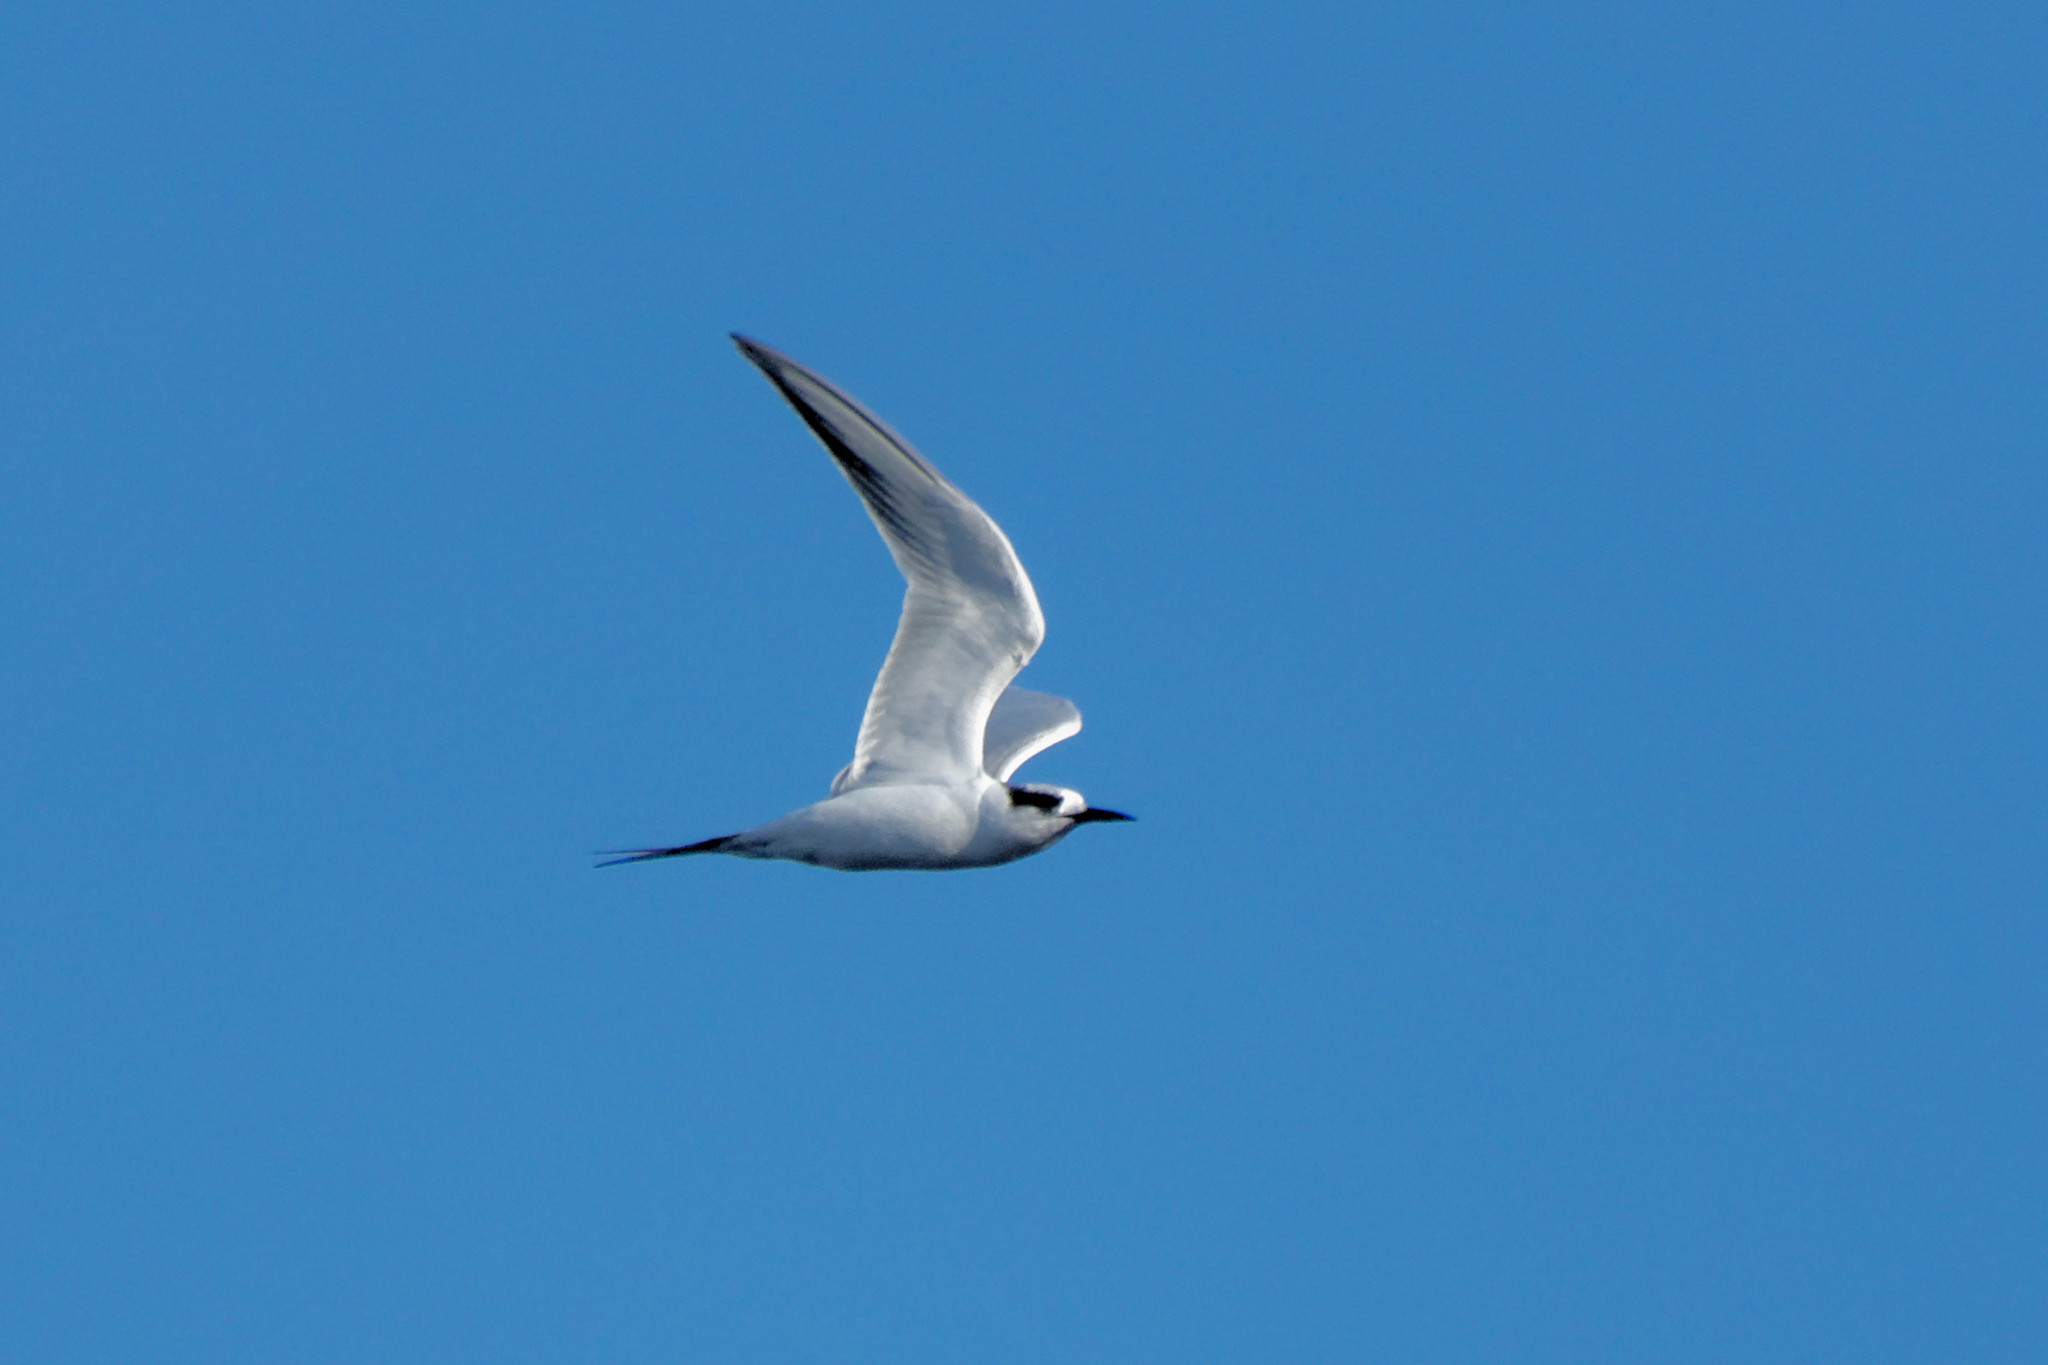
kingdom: Animalia
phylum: Chordata
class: Aves
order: Charadriiformes
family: Laridae
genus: Sterna
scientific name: Sterna forsteri
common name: Forster's tern
